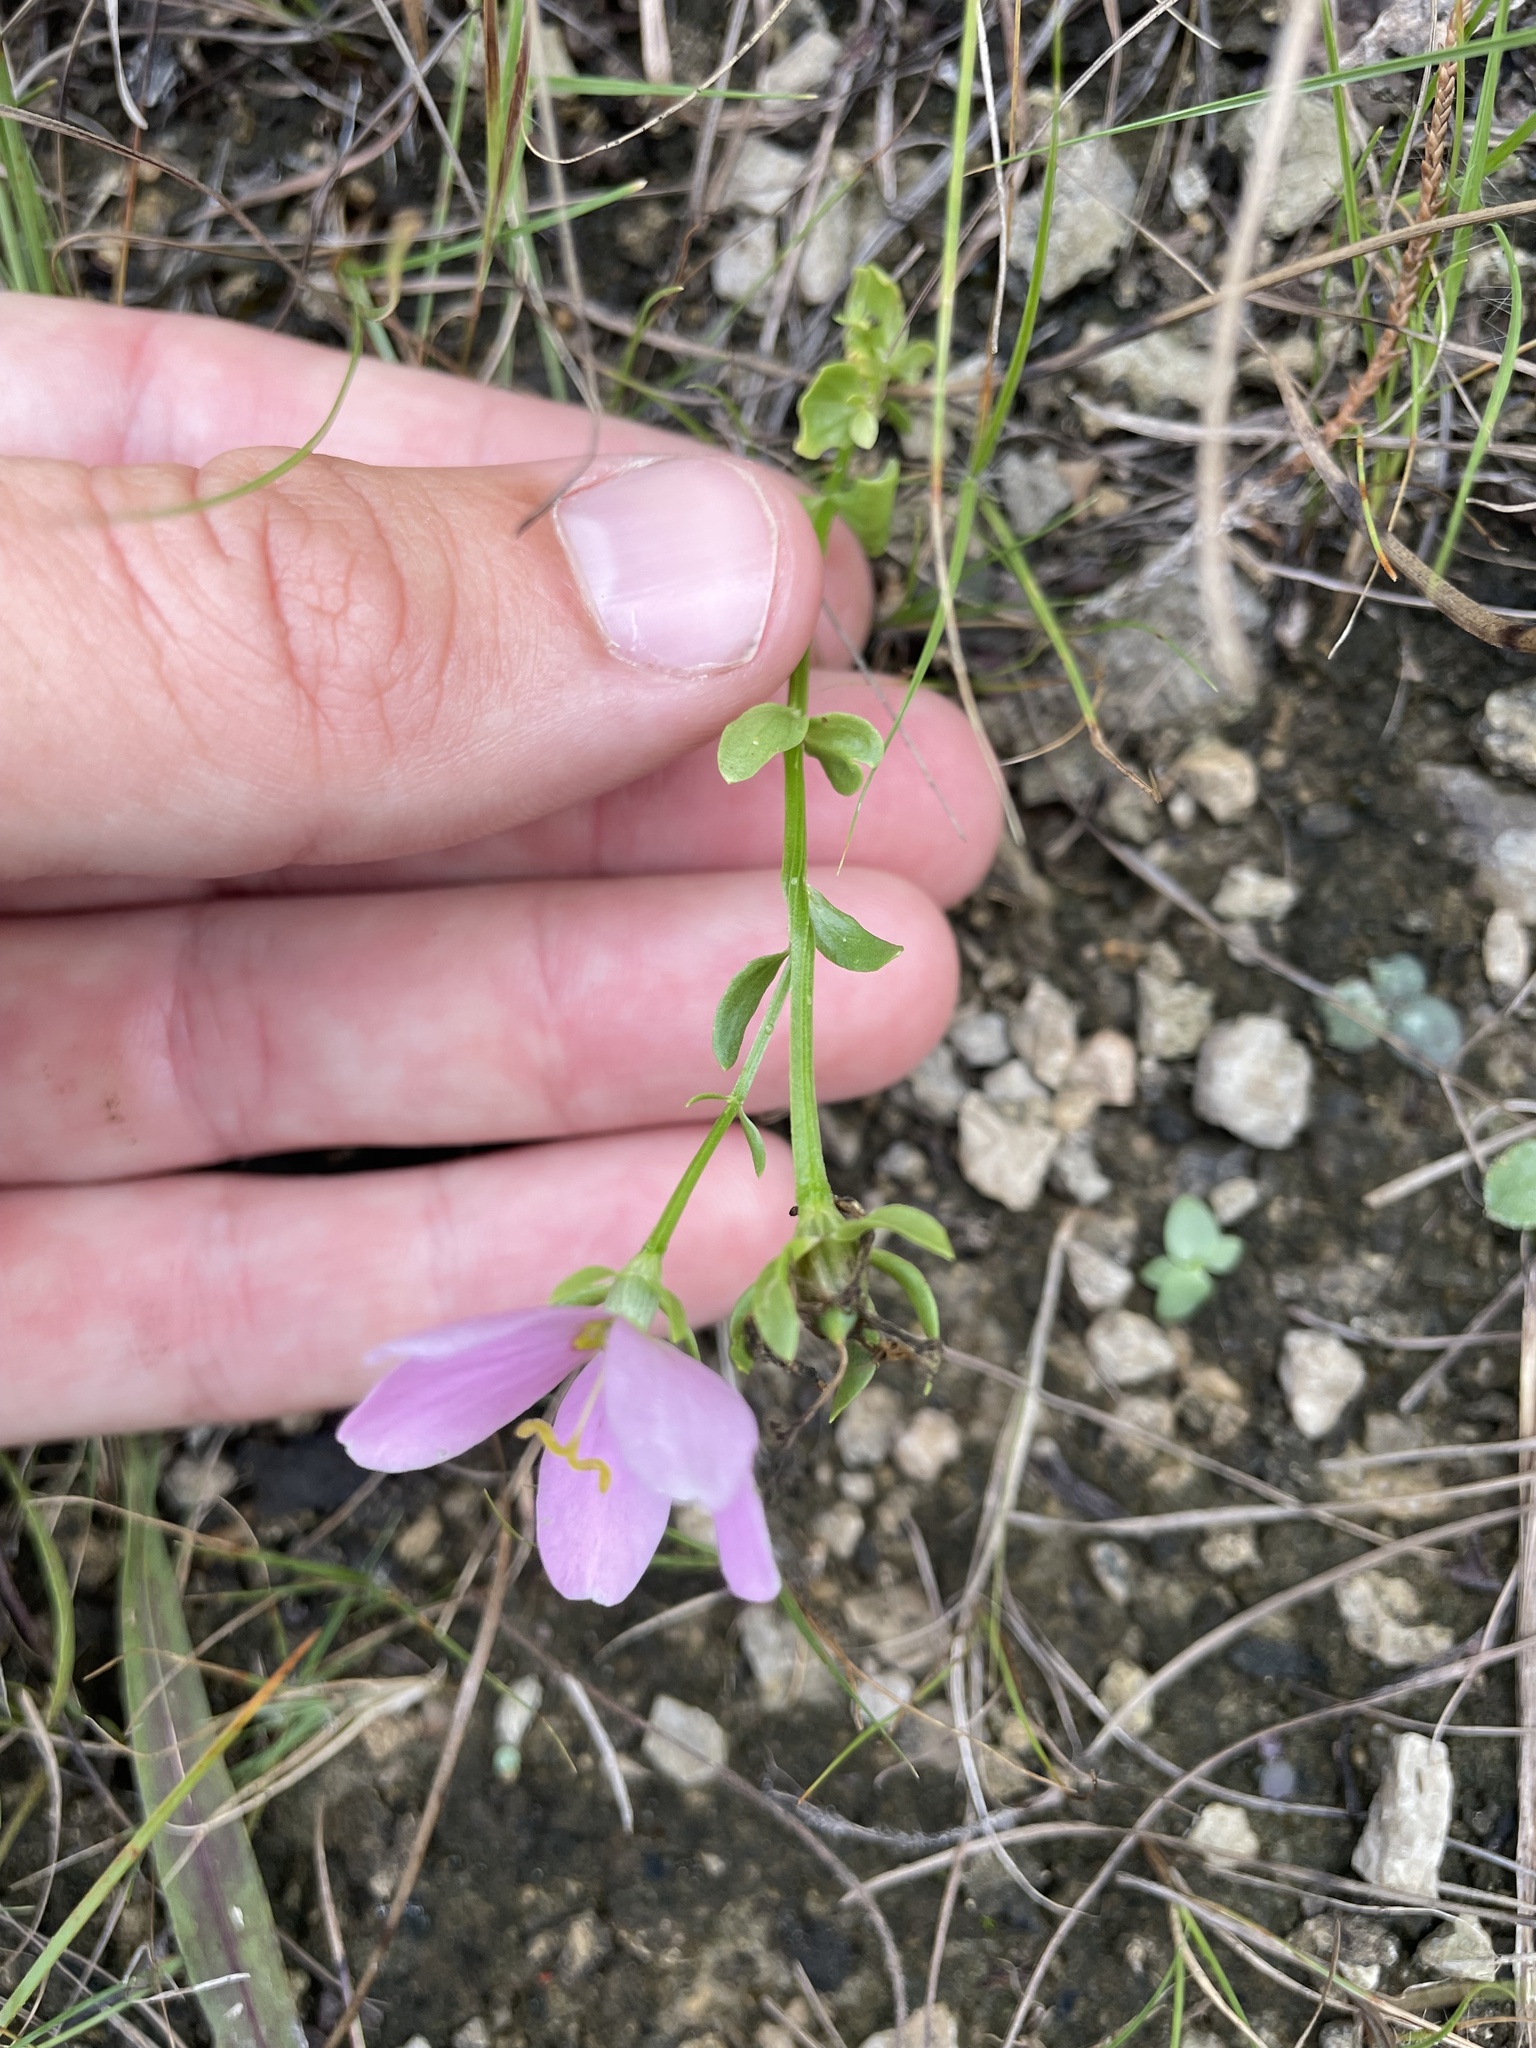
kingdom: Plantae
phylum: Tracheophyta
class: Magnoliopsida
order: Gentianales
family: Gentianaceae
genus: Sabatia
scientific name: Sabatia angularis
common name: Rose-pink
